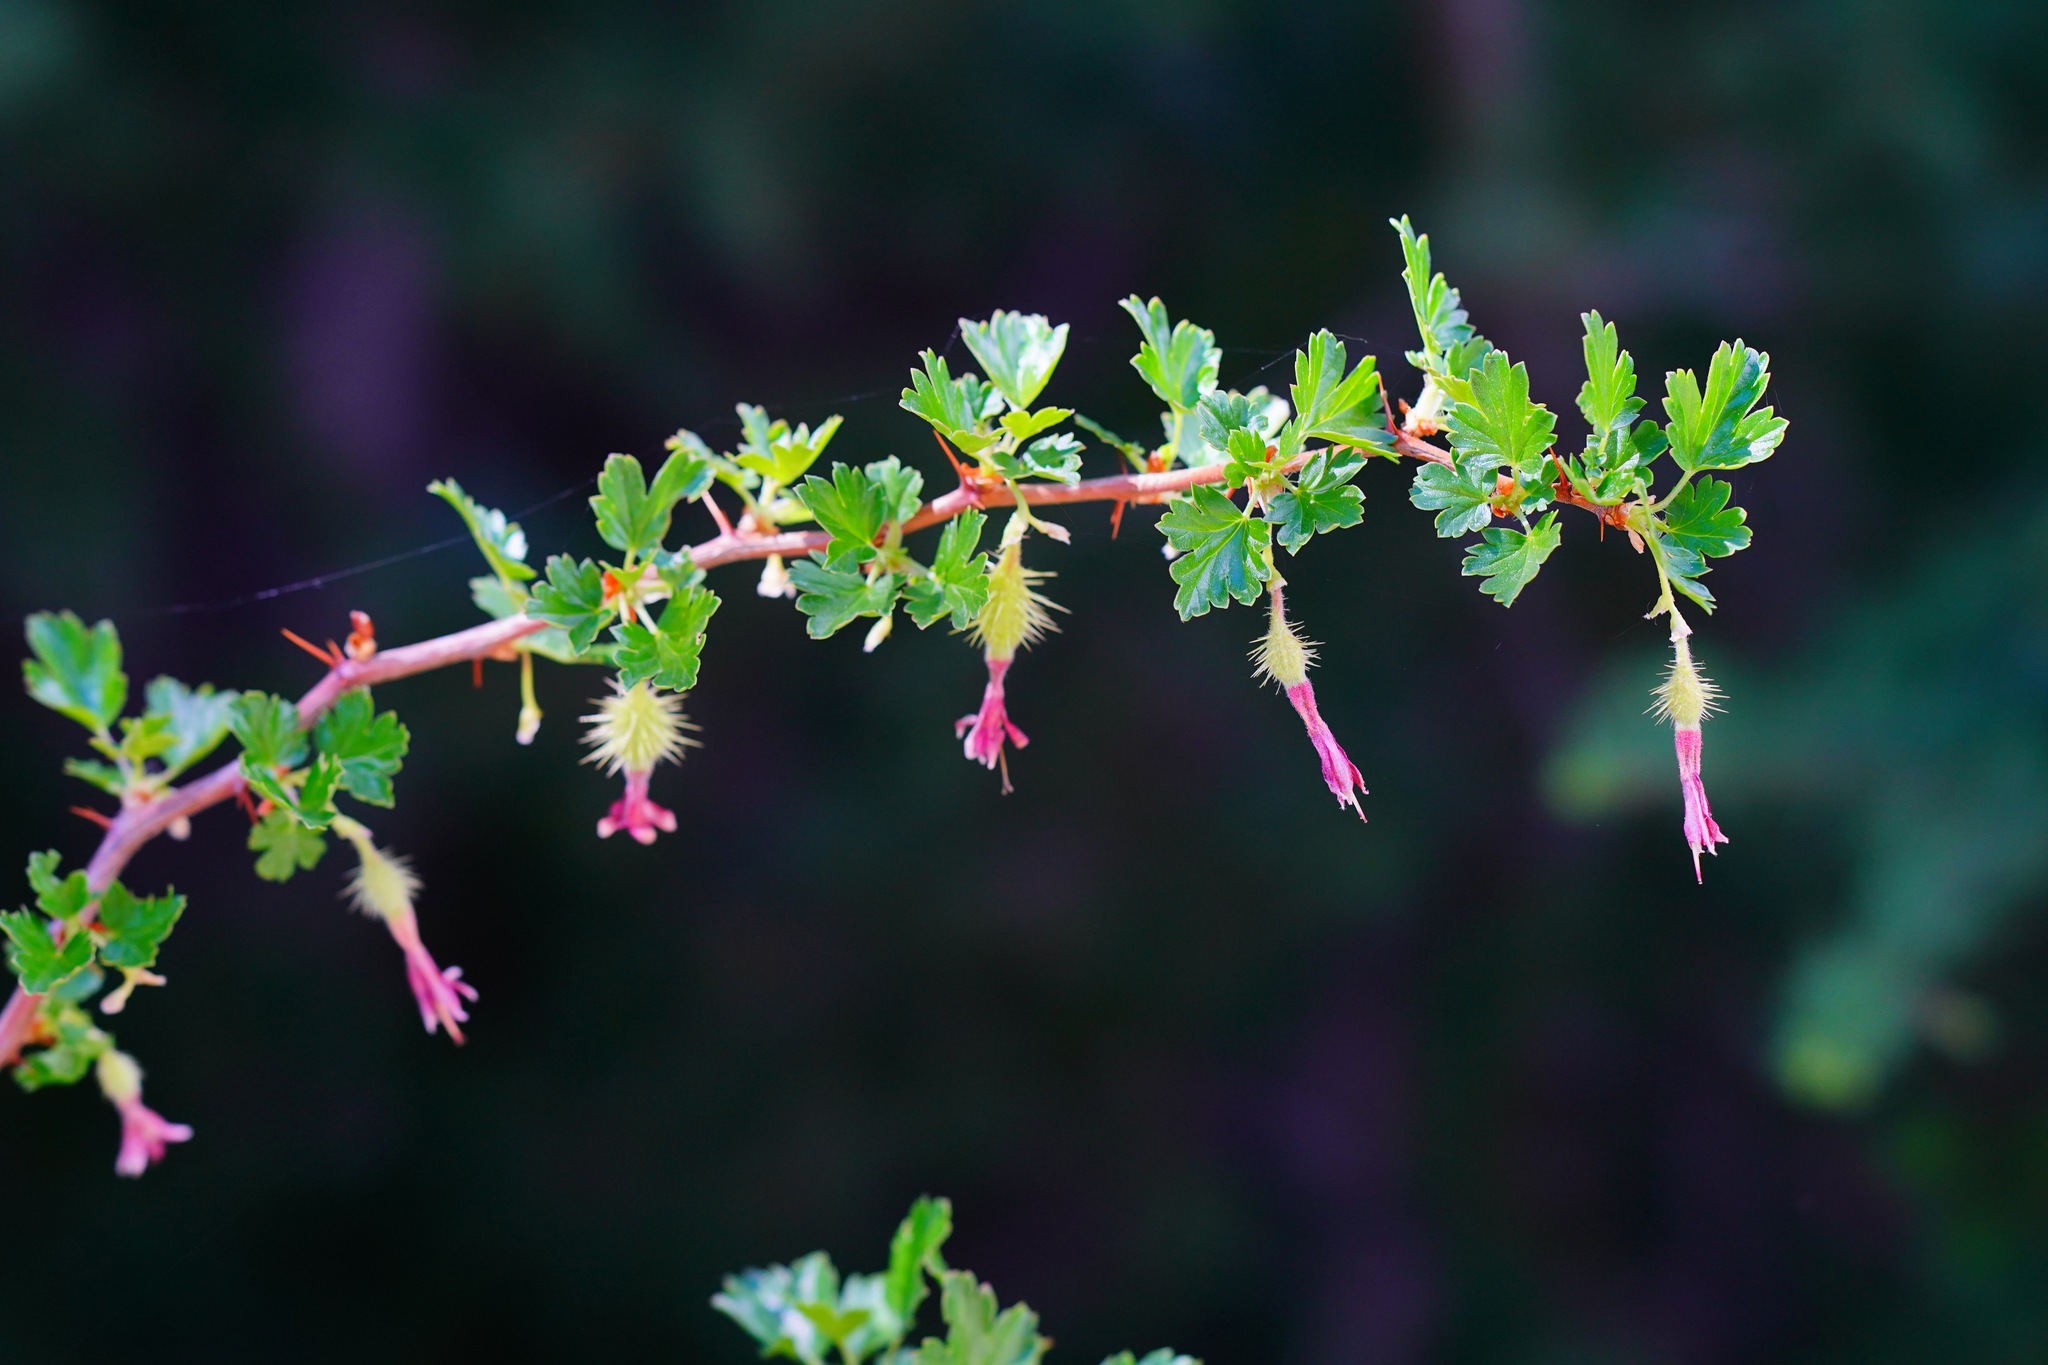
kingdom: Plantae
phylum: Tracheophyta
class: Magnoliopsida
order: Saxifragales
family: Grossulariaceae
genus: Ribes
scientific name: Ribes roezlii
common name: Sierra gooseberry
